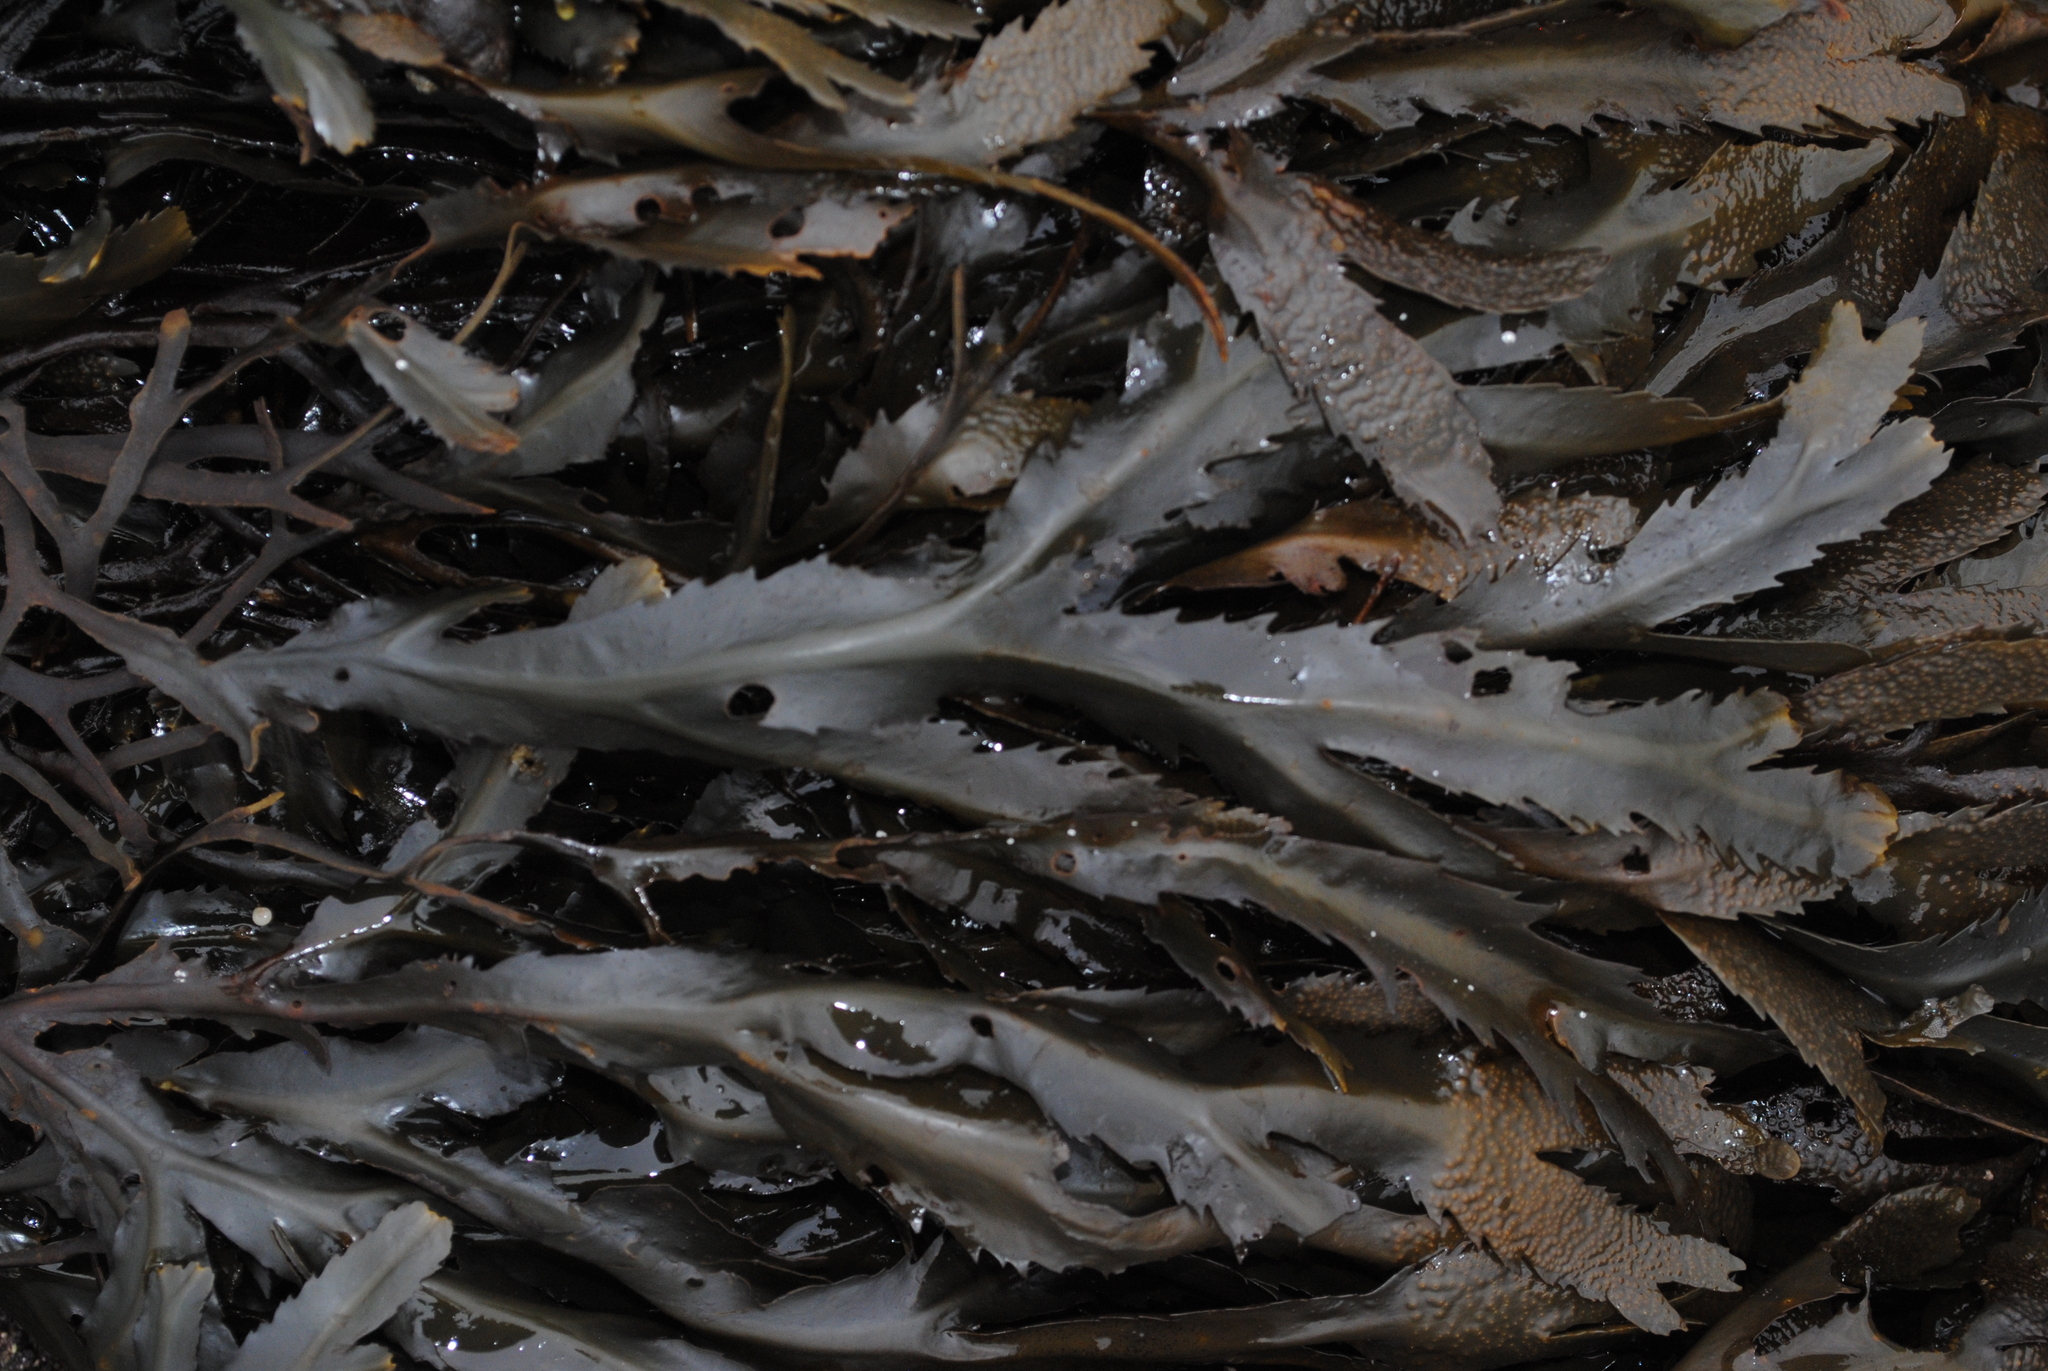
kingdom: Chromista
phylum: Ochrophyta
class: Phaeophyceae
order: Fucales
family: Fucaceae
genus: Fucus
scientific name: Fucus serratus
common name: Toothed wrack
